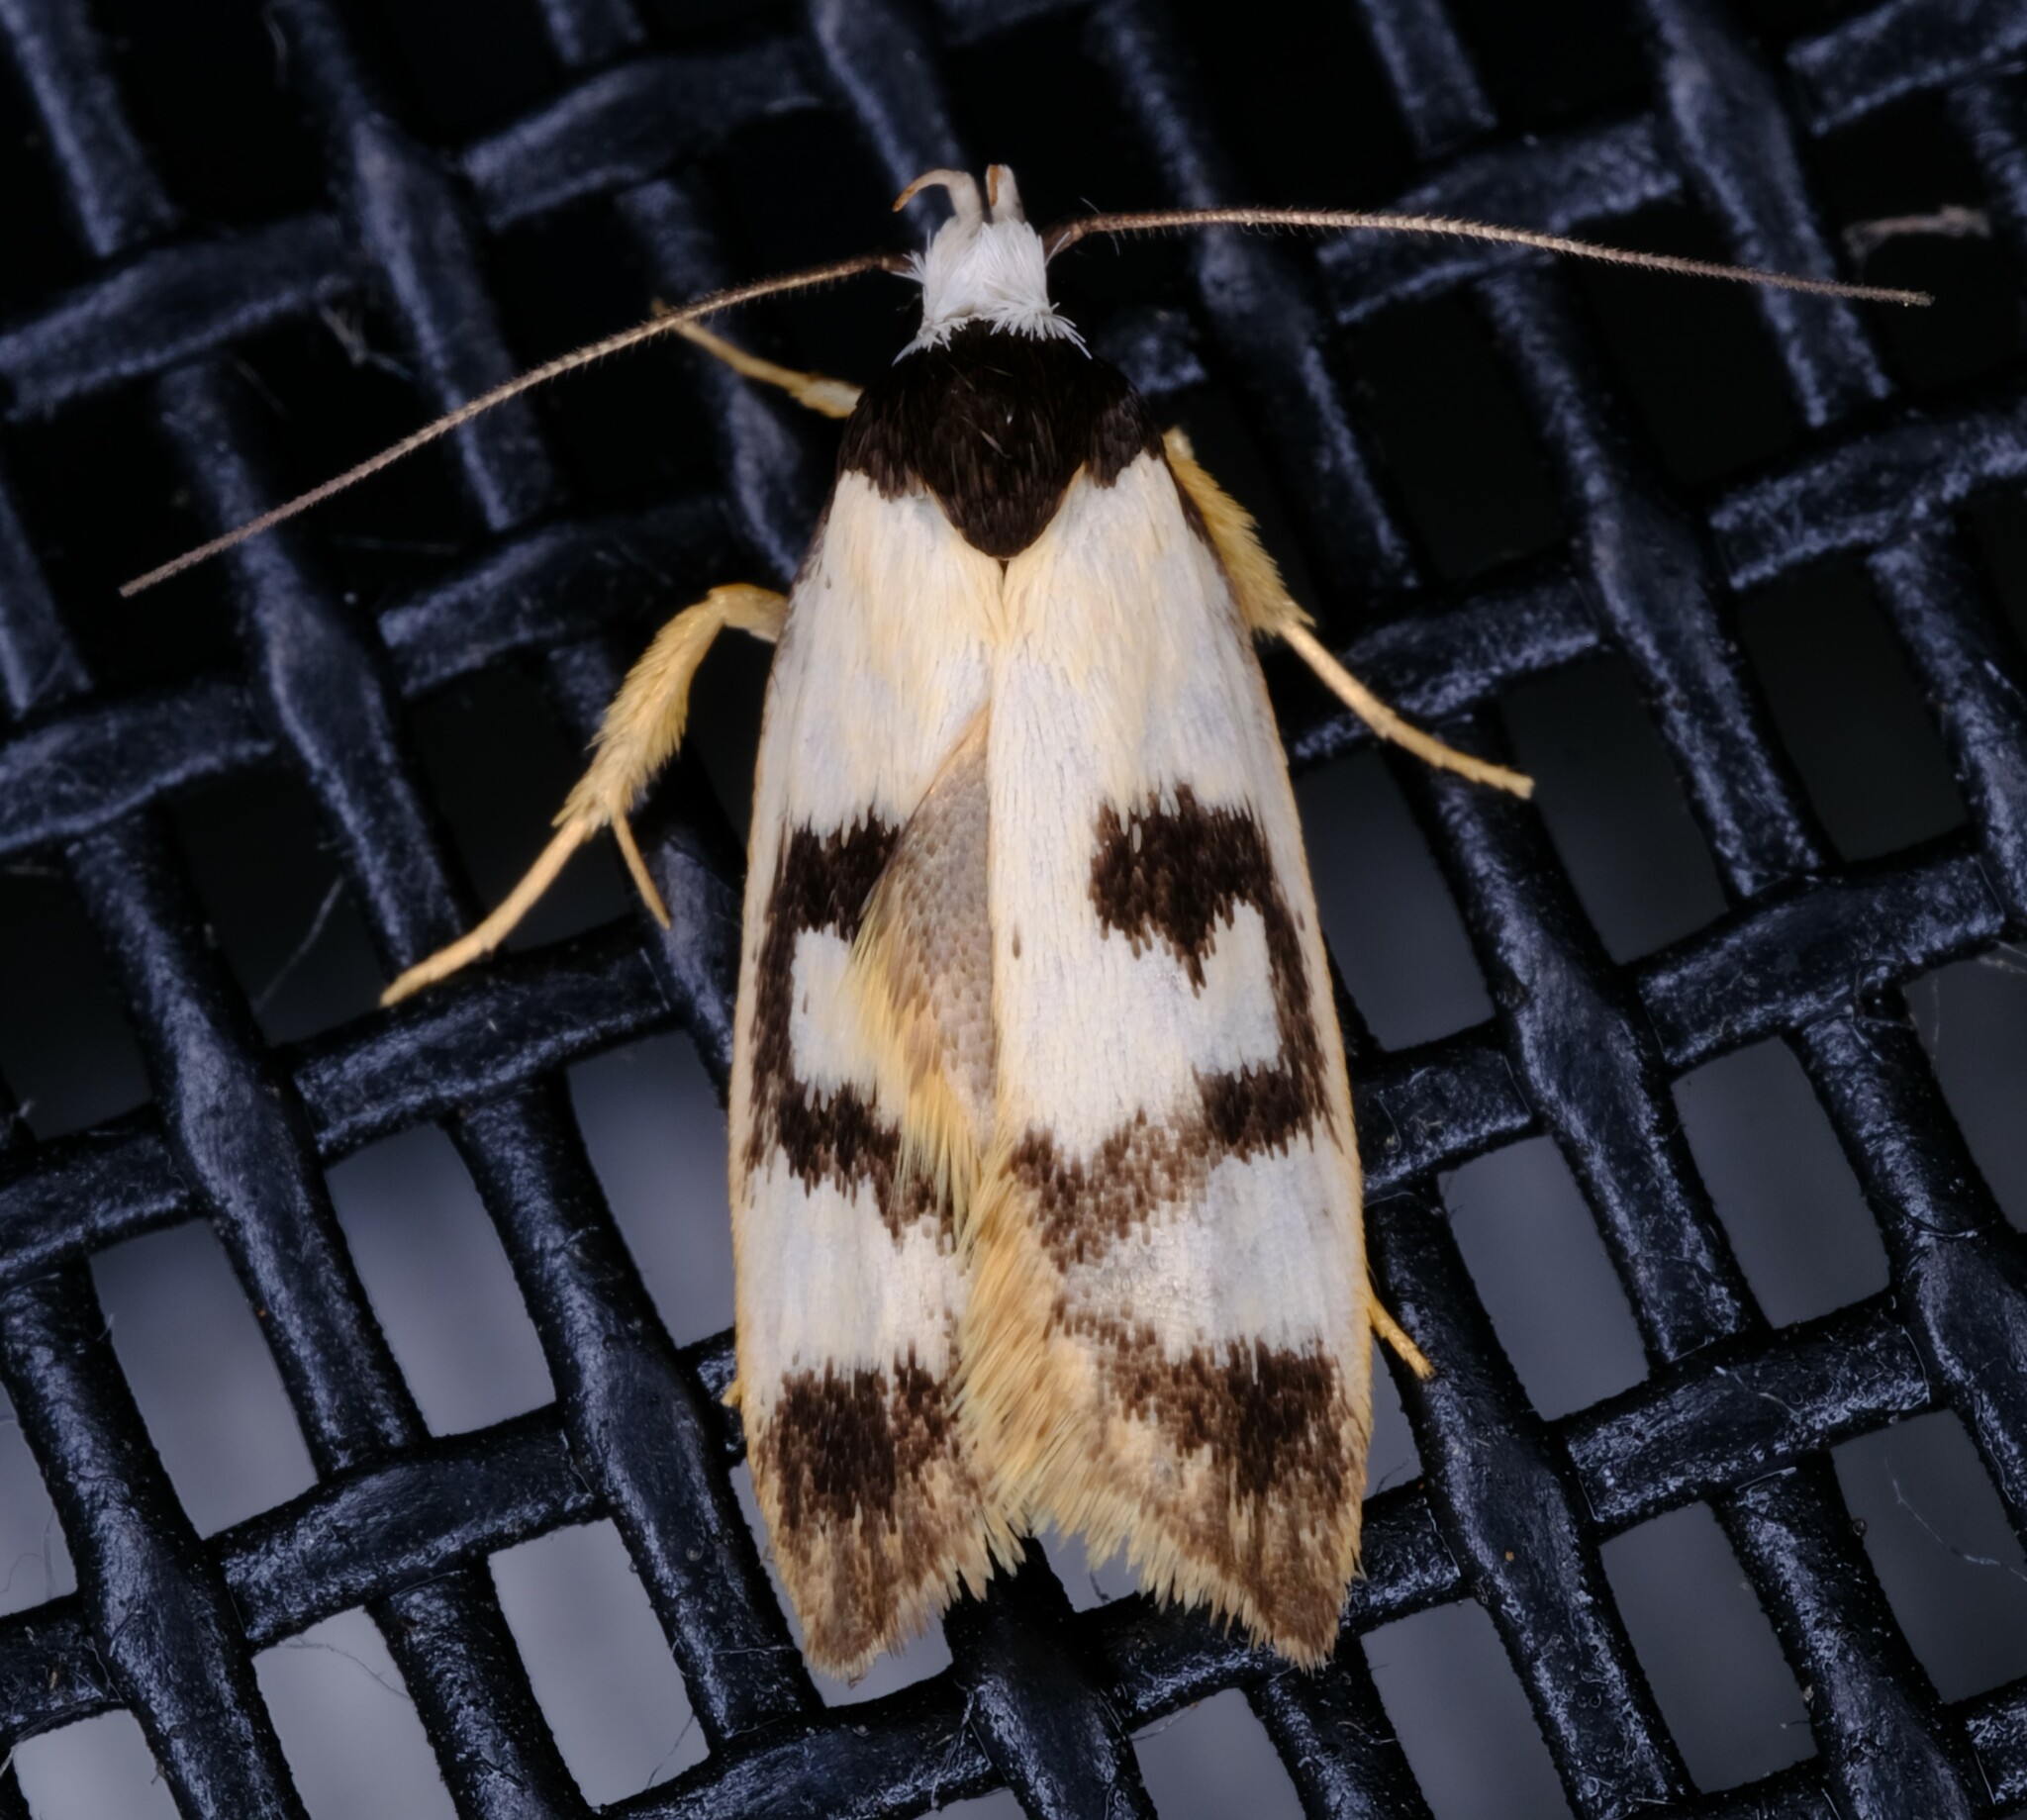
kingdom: Animalia
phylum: Arthropoda
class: Insecta
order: Lepidoptera
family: Oecophoridae
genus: Eulechria
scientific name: Eulechria sigmophora
